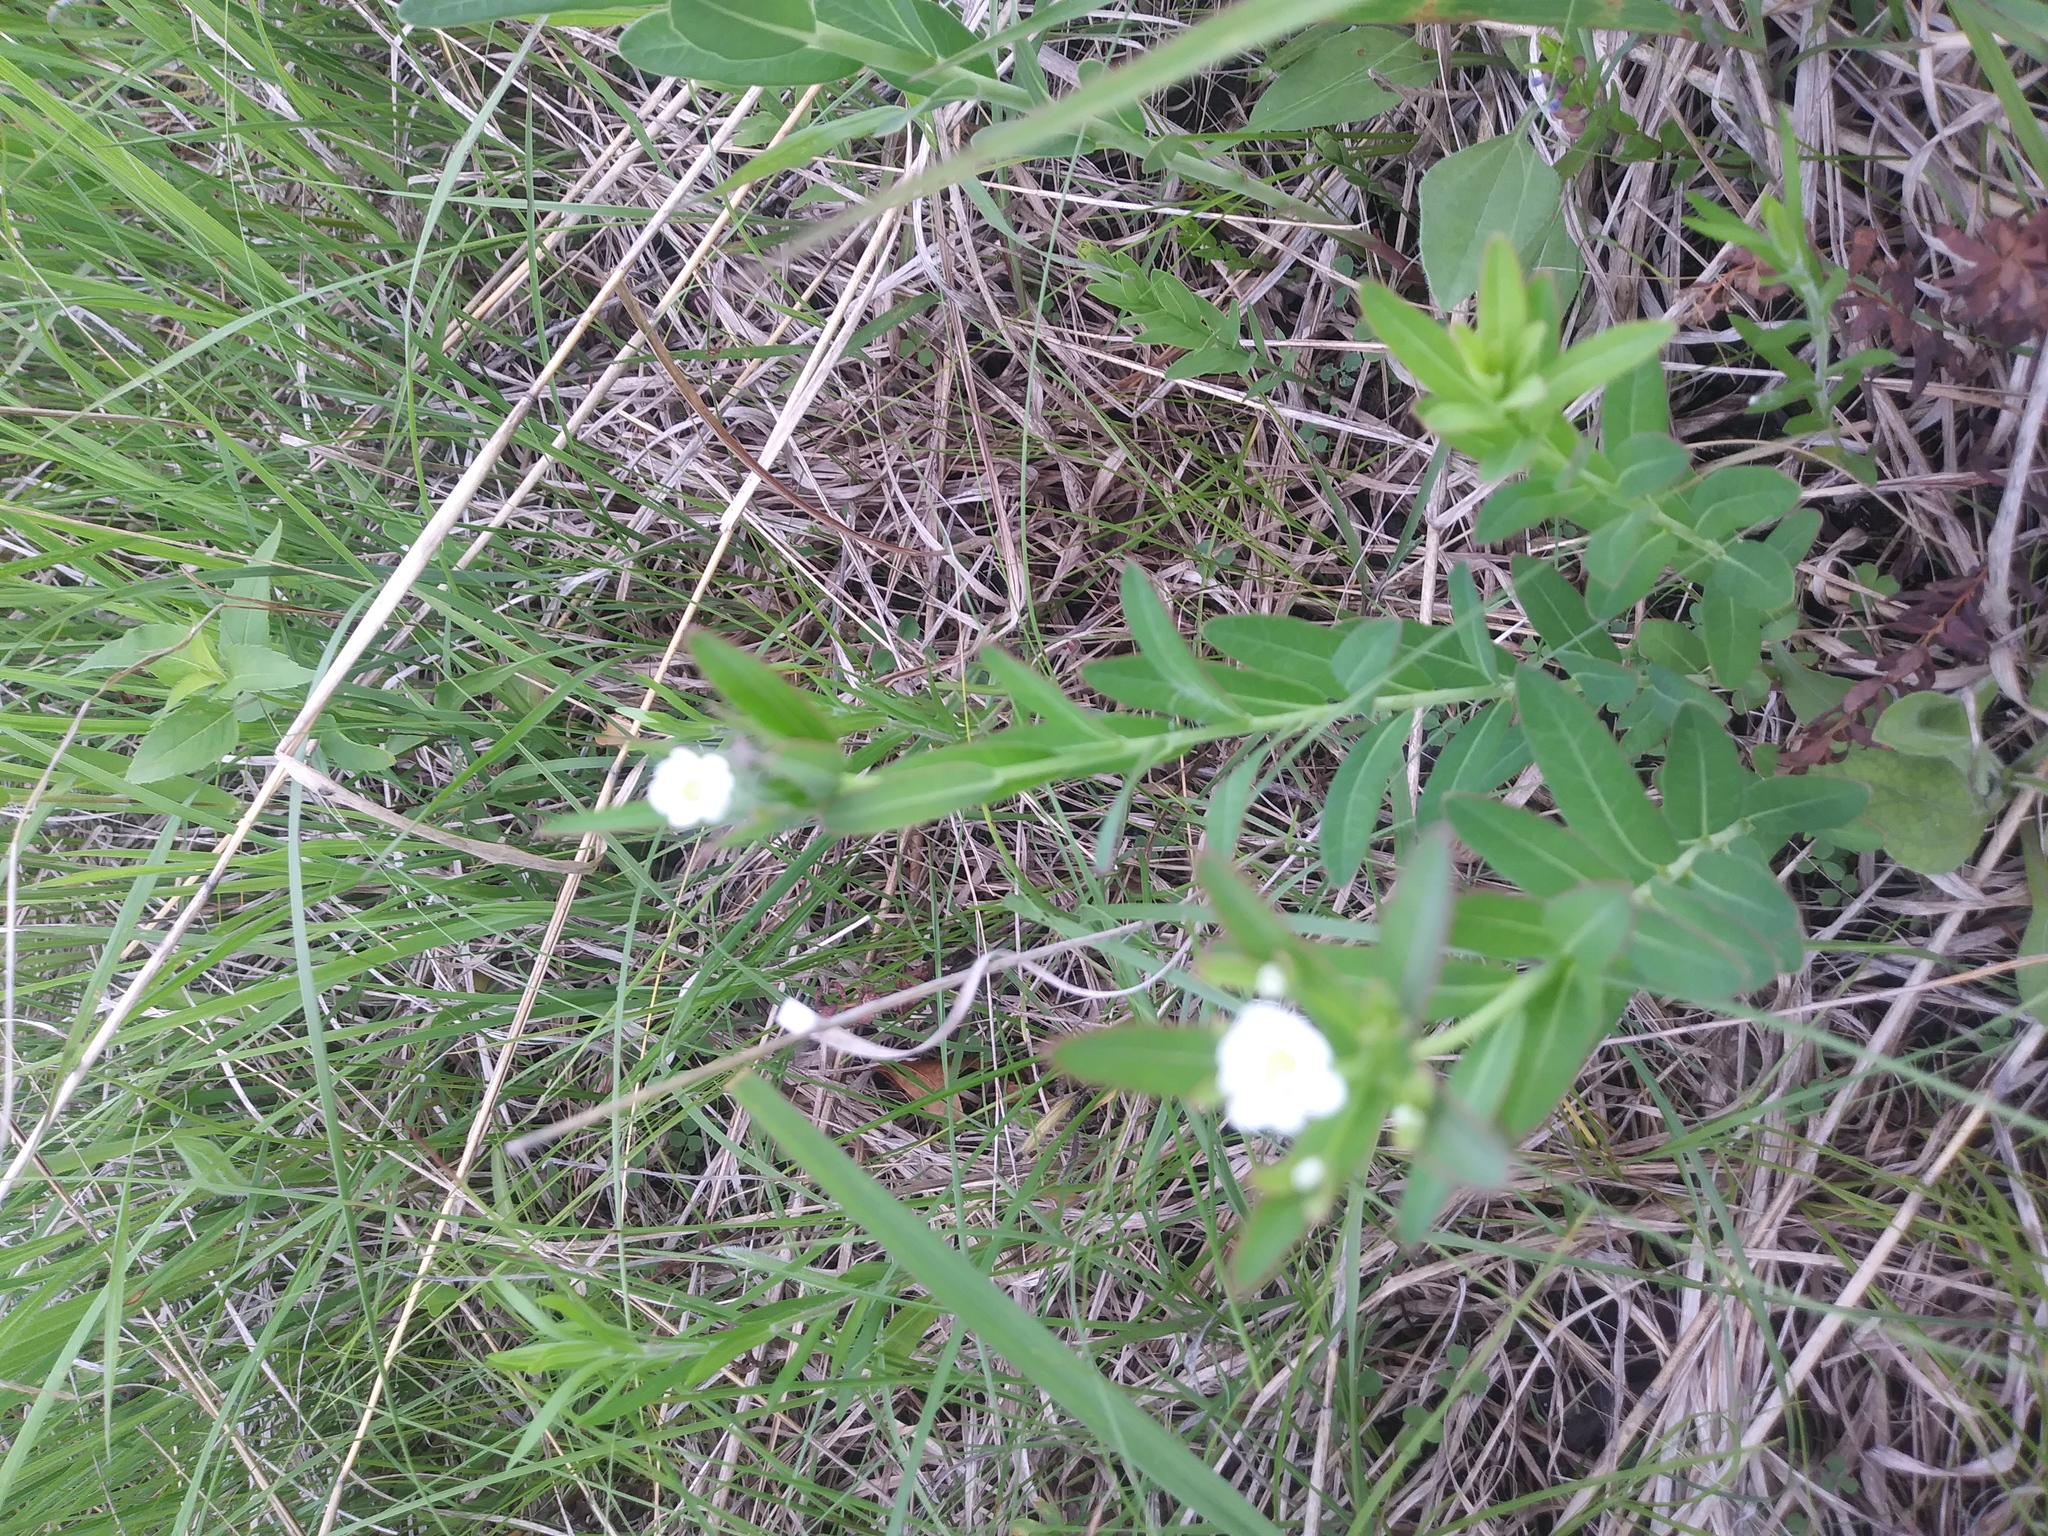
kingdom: Plantae
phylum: Tracheophyta
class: Magnoliopsida
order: Malpighiales
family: Euphorbiaceae
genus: Euphorbia
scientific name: Euphorbia corollata
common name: Flowering spurge
